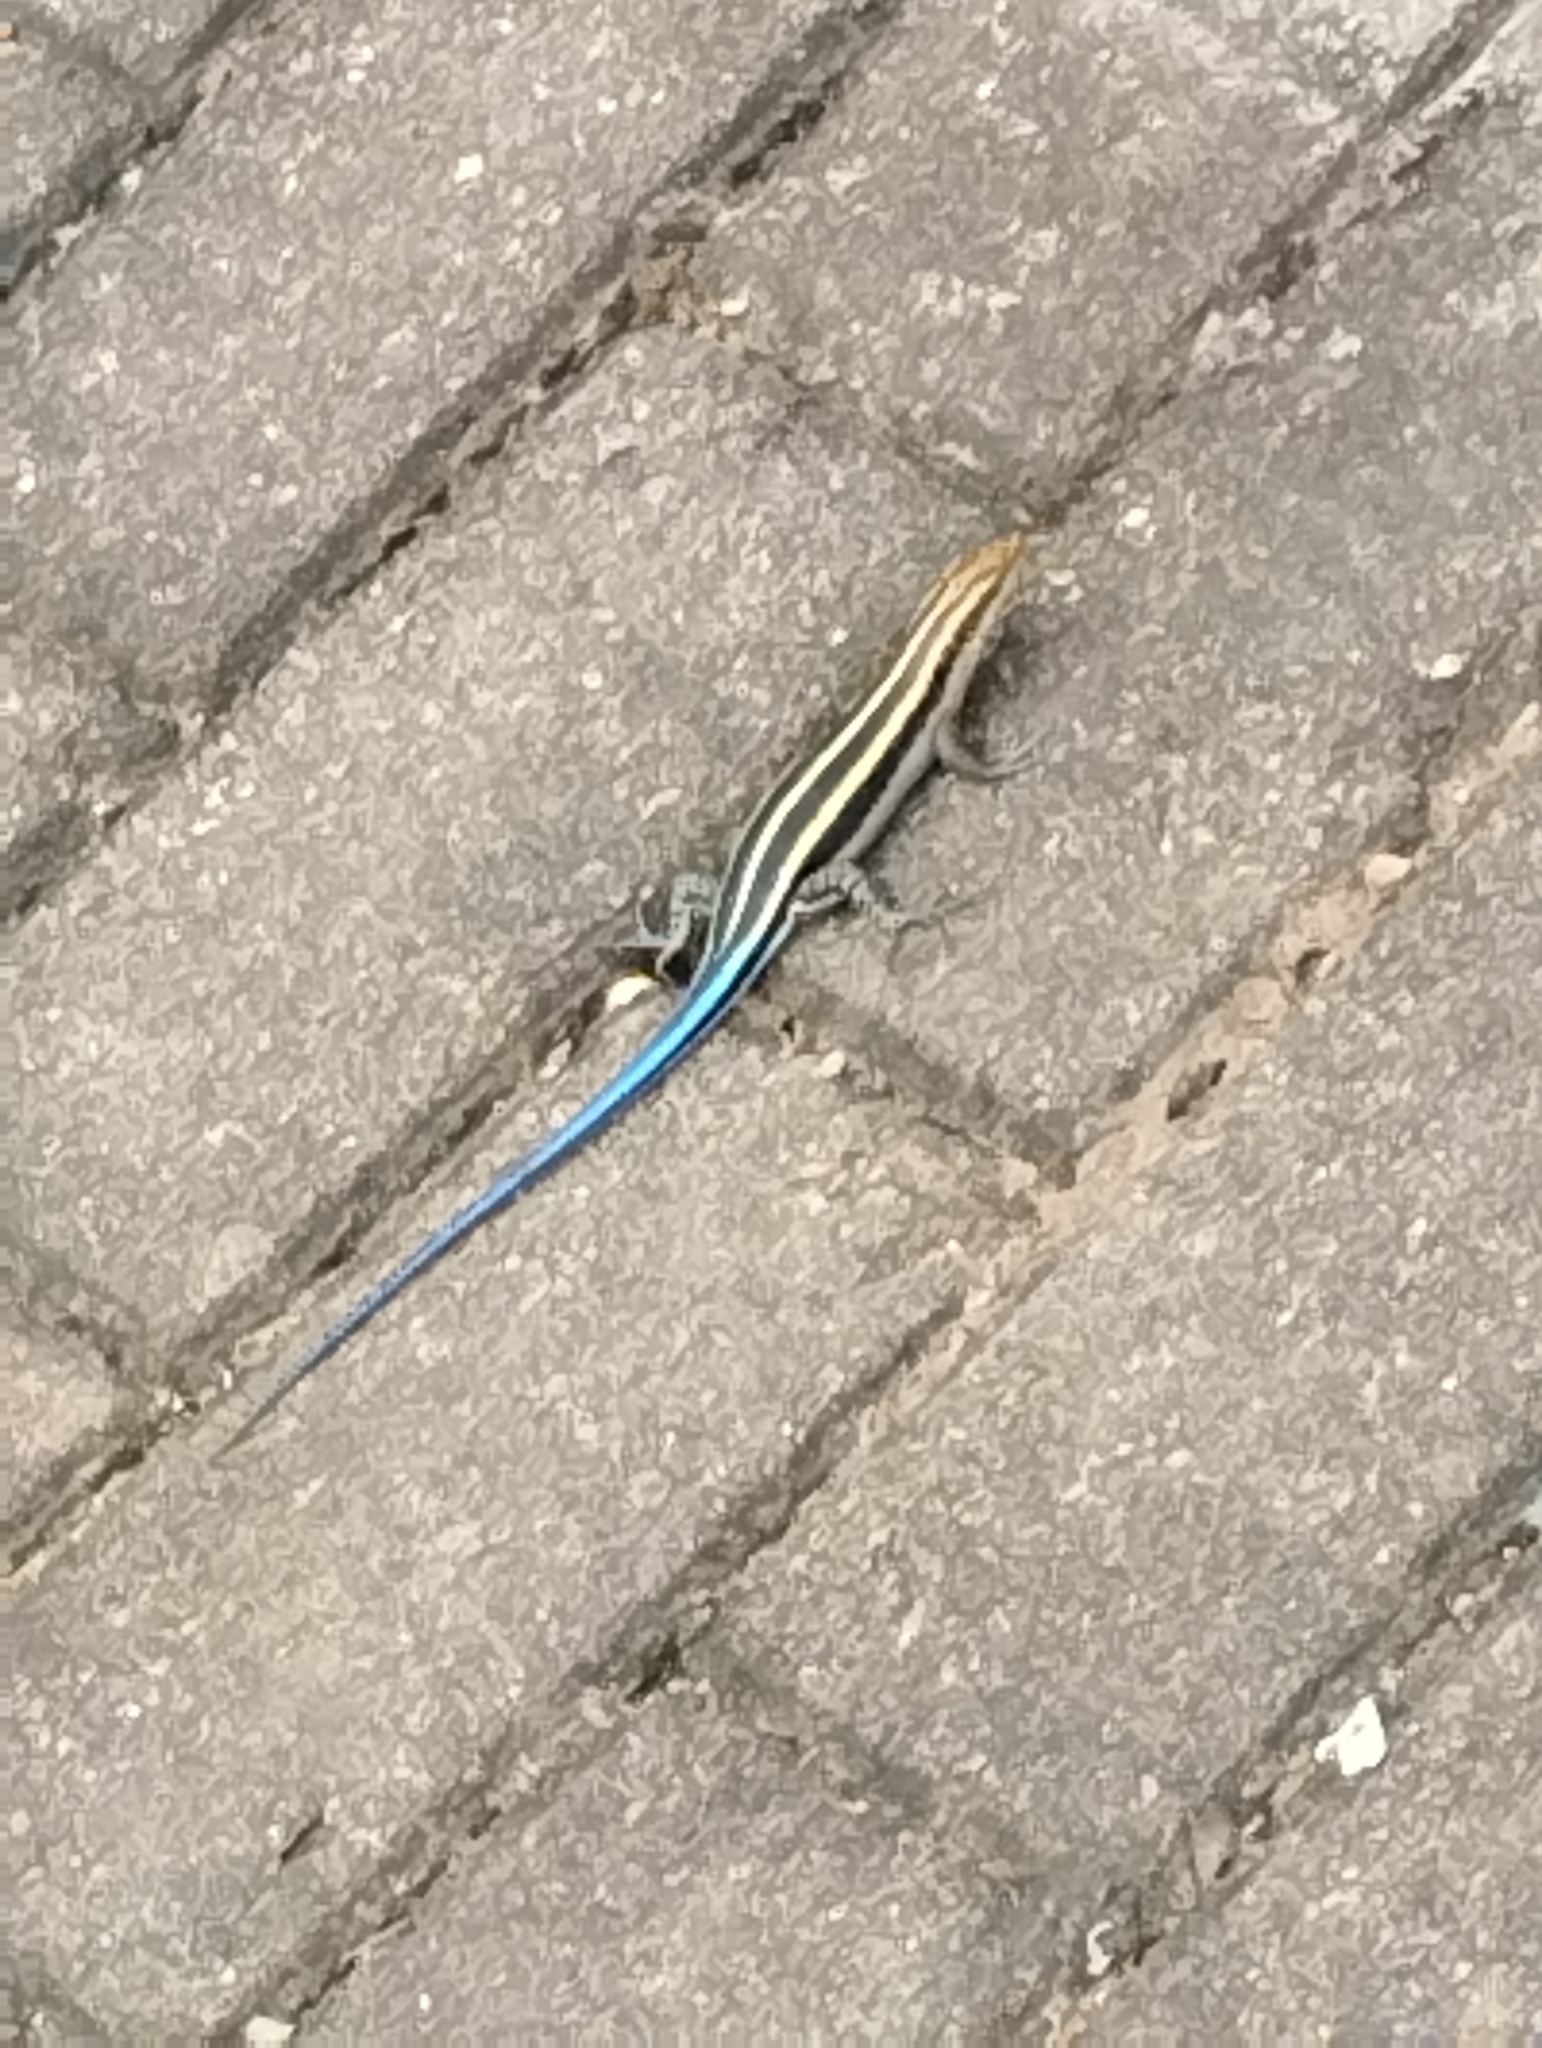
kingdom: Animalia
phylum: Chordata
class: Squamata
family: Scincidae
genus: Trachylepis
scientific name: Trachylepis margaritifera
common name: Rainbow skink
